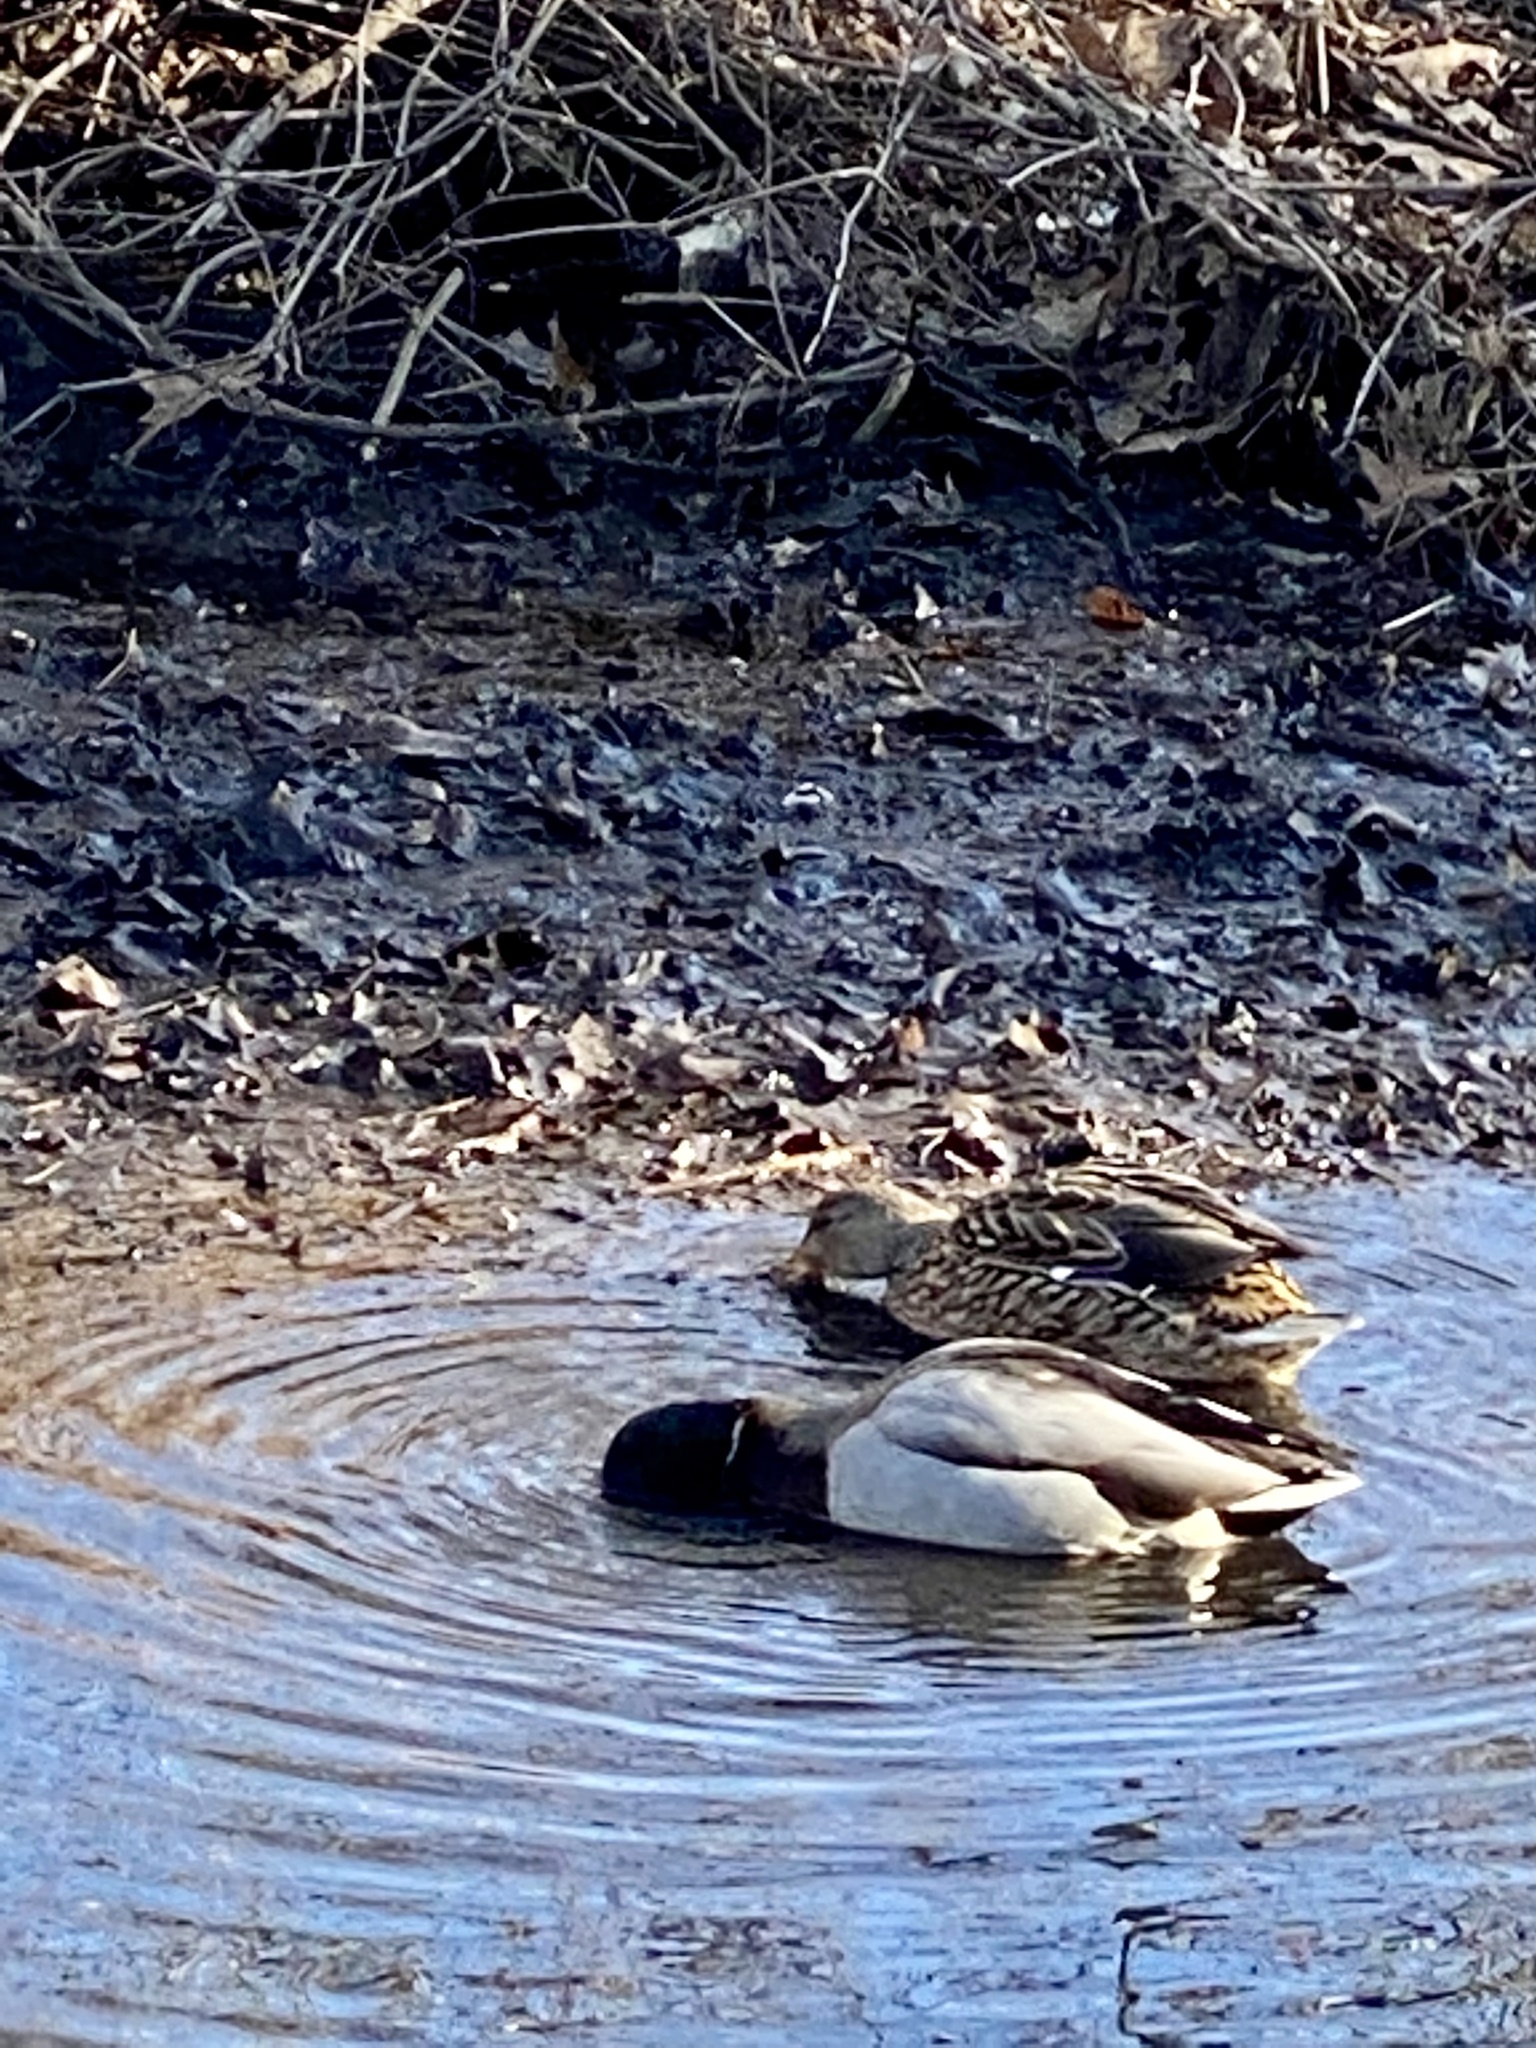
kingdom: Animalia
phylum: Chordata
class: Aves
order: Anseriformes
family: Anatidae
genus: Anas
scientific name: Anas platyrhynchos
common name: Mallard
